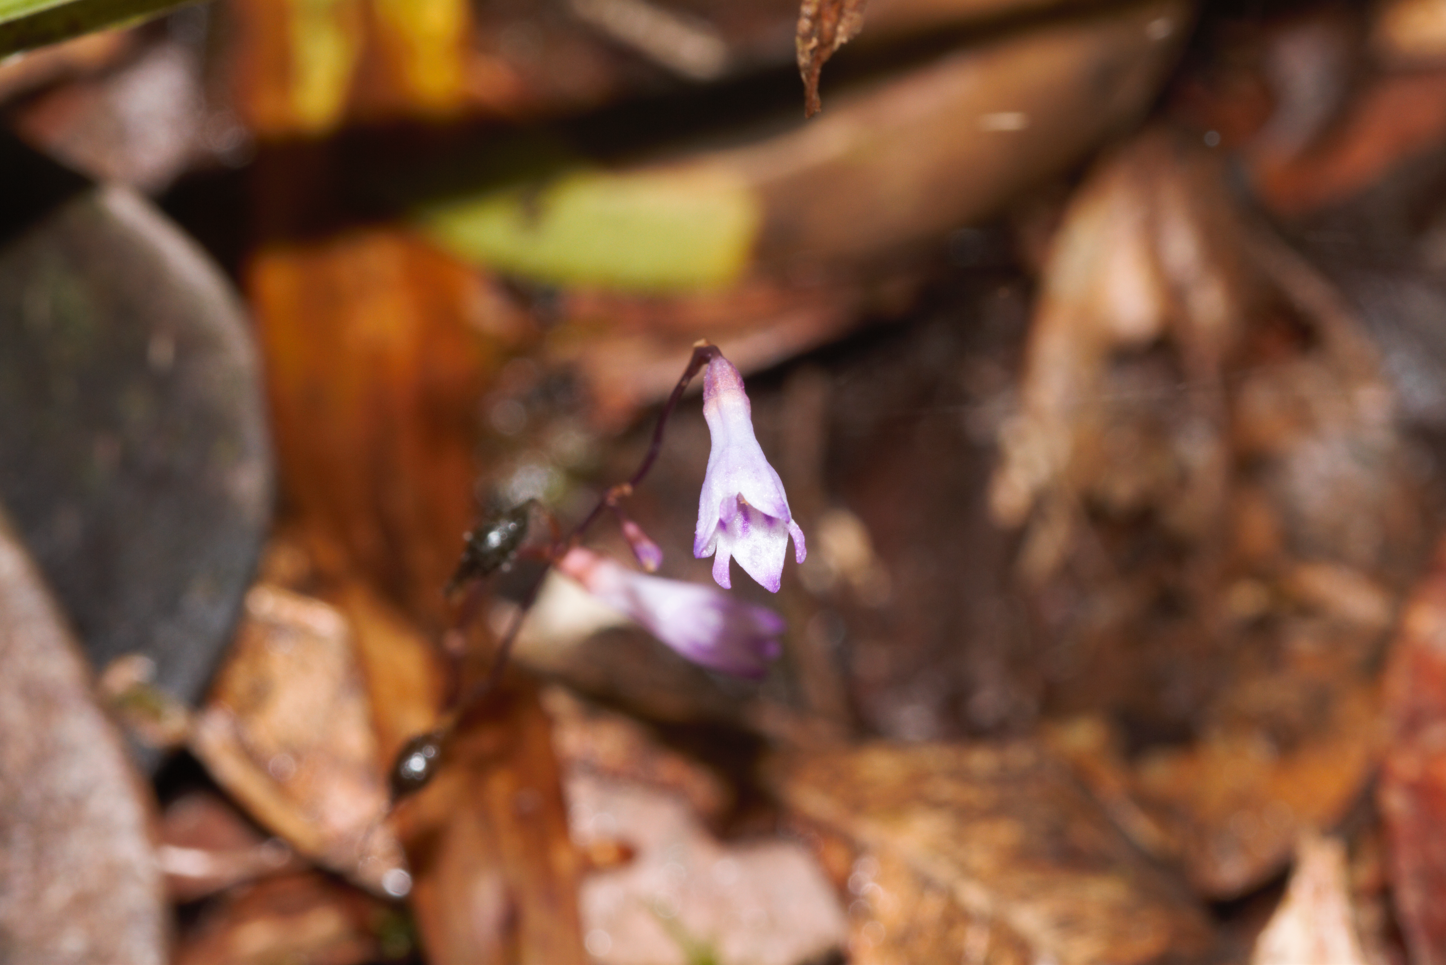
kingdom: Plantae
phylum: Tracheophyta
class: Liliopsida
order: Dioscoreales
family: Burmanniaceae
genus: Apteria
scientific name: Apteria aphylla
